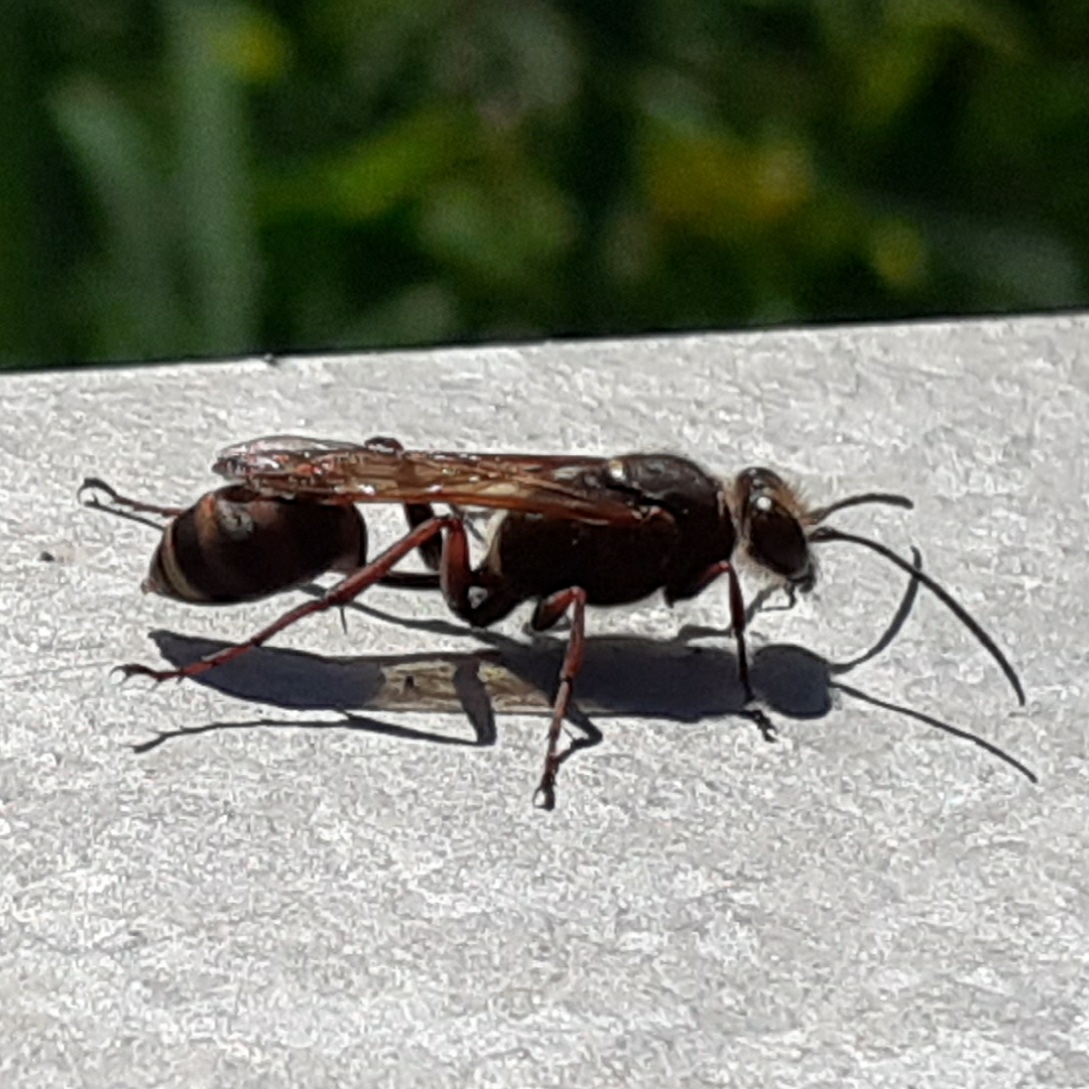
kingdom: Animalia
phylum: Arthropoda
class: Insecta
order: Hymenoptera
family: Sphecidae
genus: Sceliphron
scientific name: Sceliphron curvatum
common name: Pèlopèe
